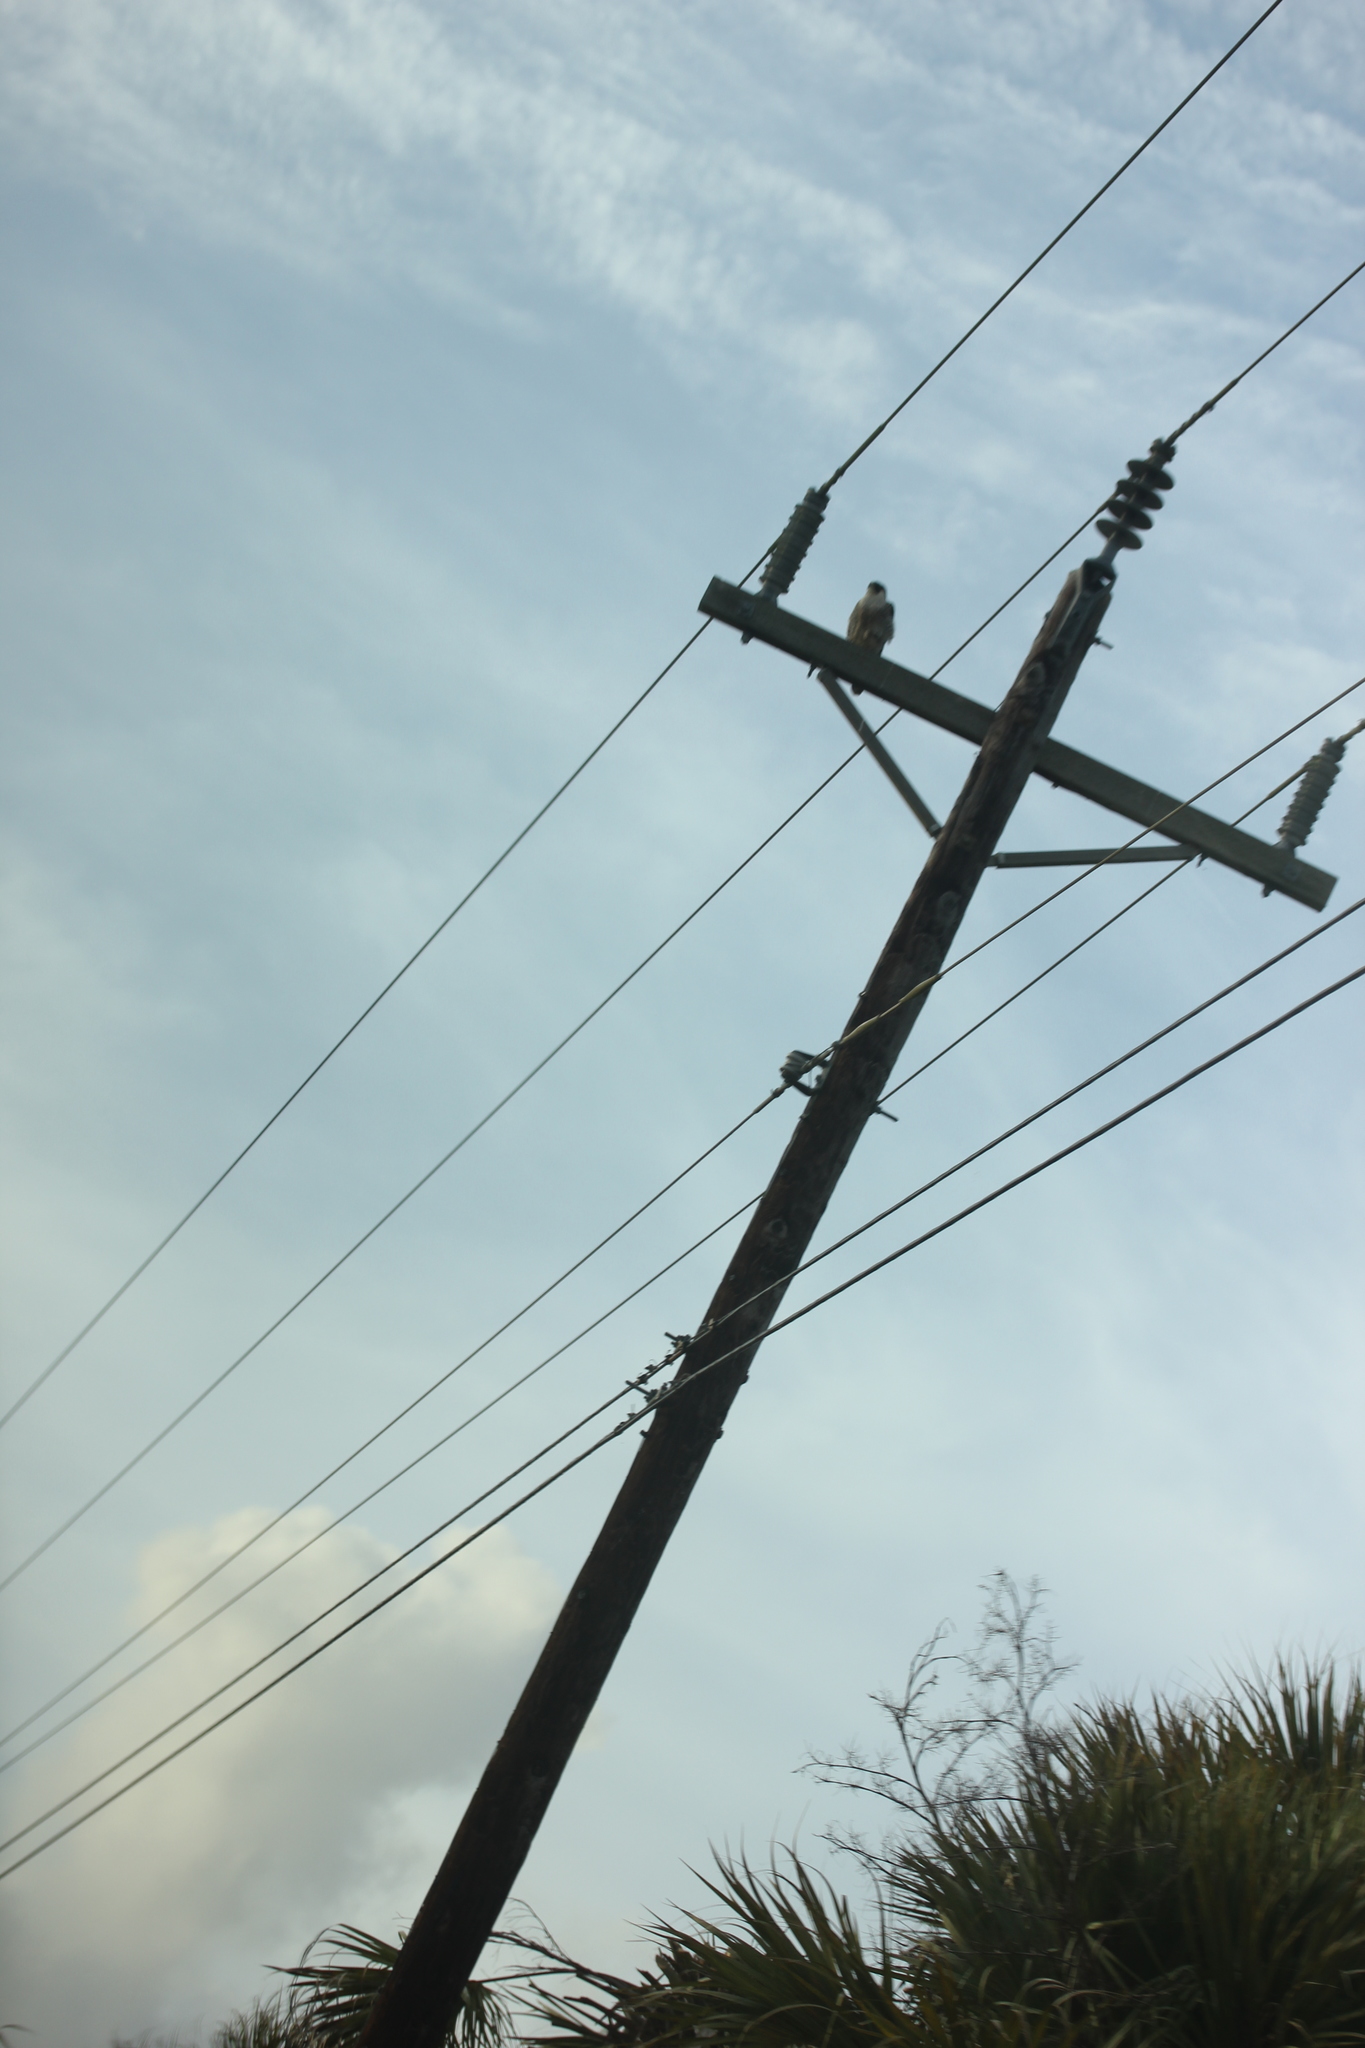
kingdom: Animalia
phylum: Chordata
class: Aves
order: Falconiformes
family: Falconidae
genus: Falco
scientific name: Falco peregrinus
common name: Peregrine falcon
